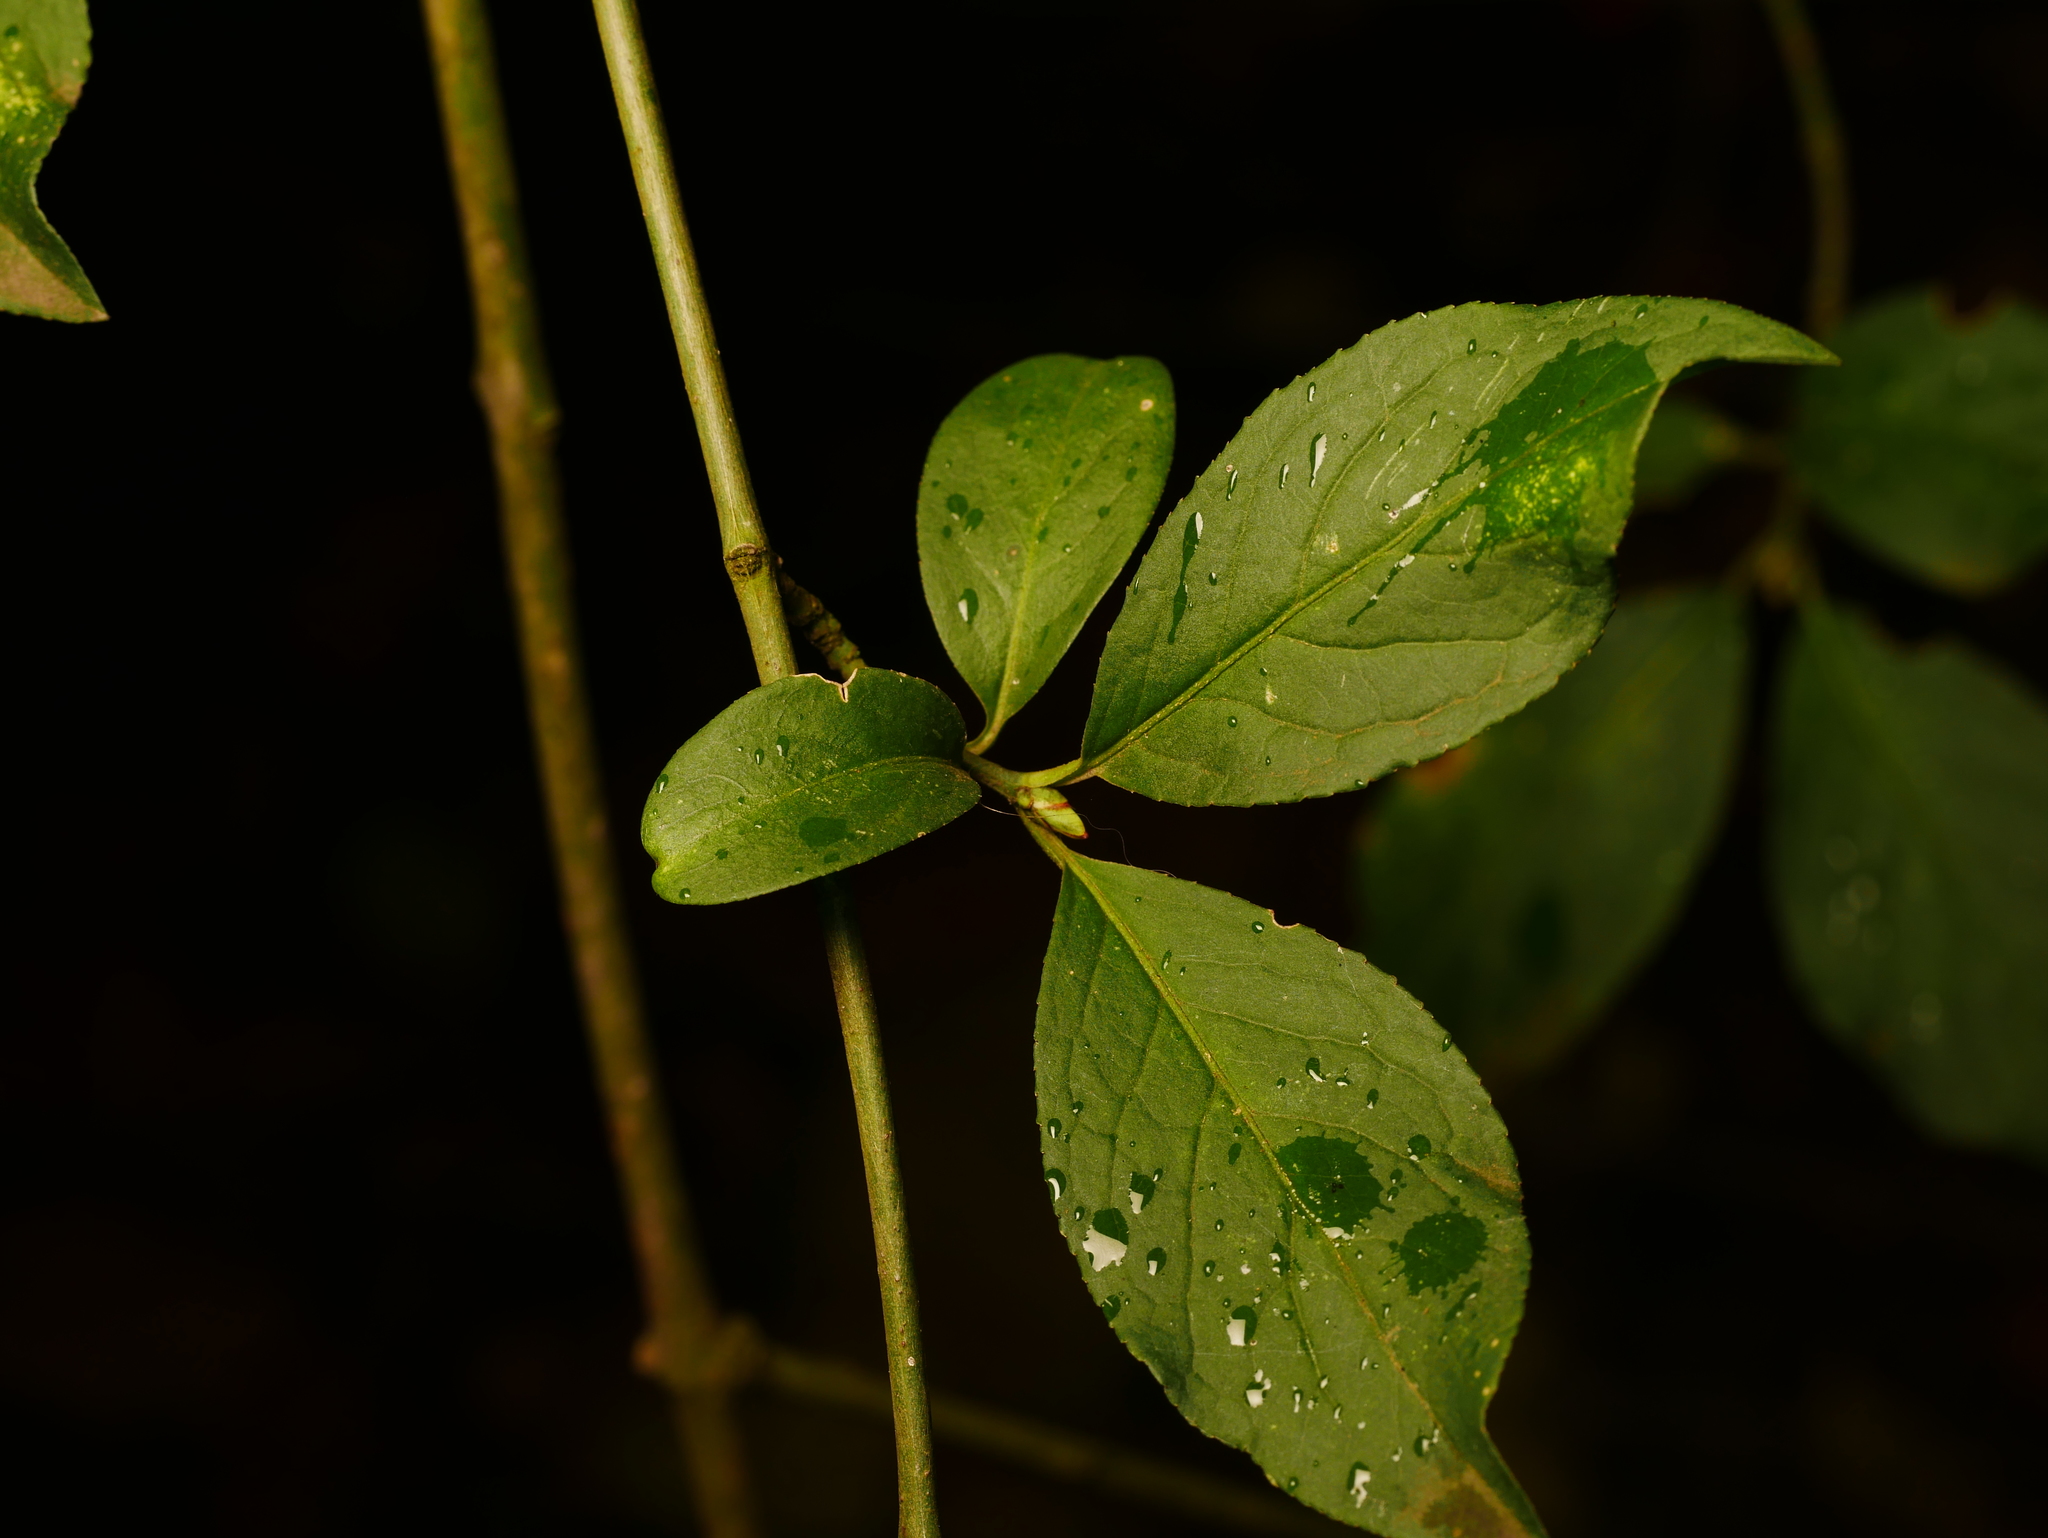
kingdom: Plantae
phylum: Tracheophyta
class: Magnoliopsida
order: Celastrales
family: Celastraceae
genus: Euonymus
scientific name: Euonymus europaeus
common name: Spindle
